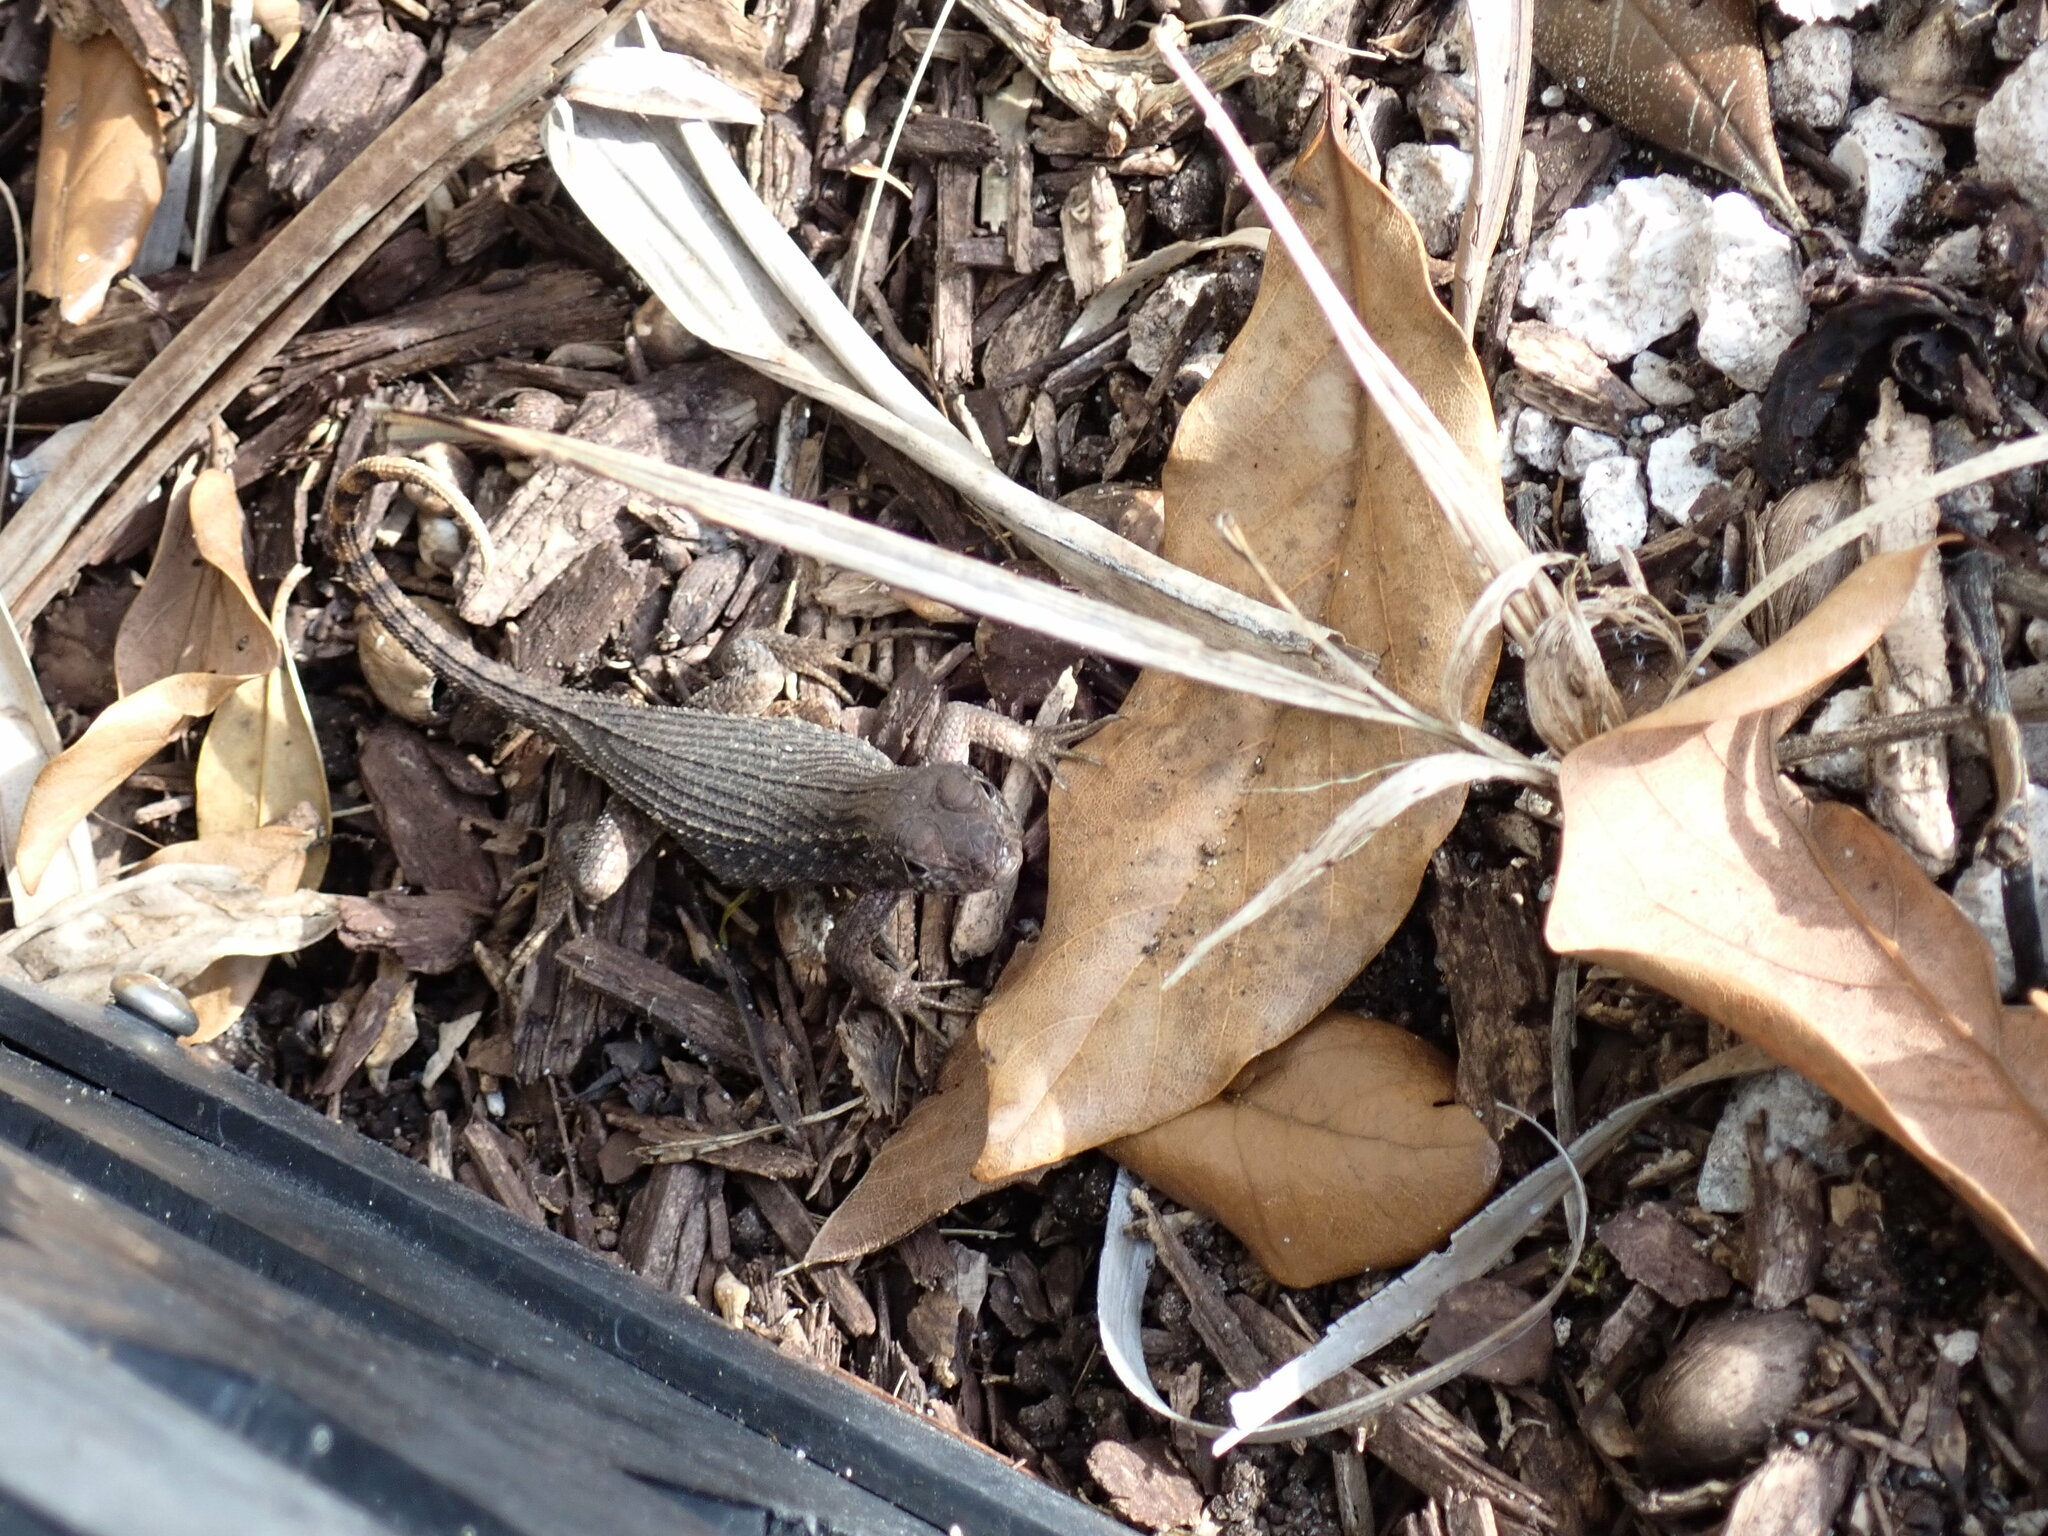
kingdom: Animalia
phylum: Chordata
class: Squamata
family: Leiocephalidae
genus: Leiocephalus
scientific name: Leiocephalus carinatus
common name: Northern curly-tailed lizard
